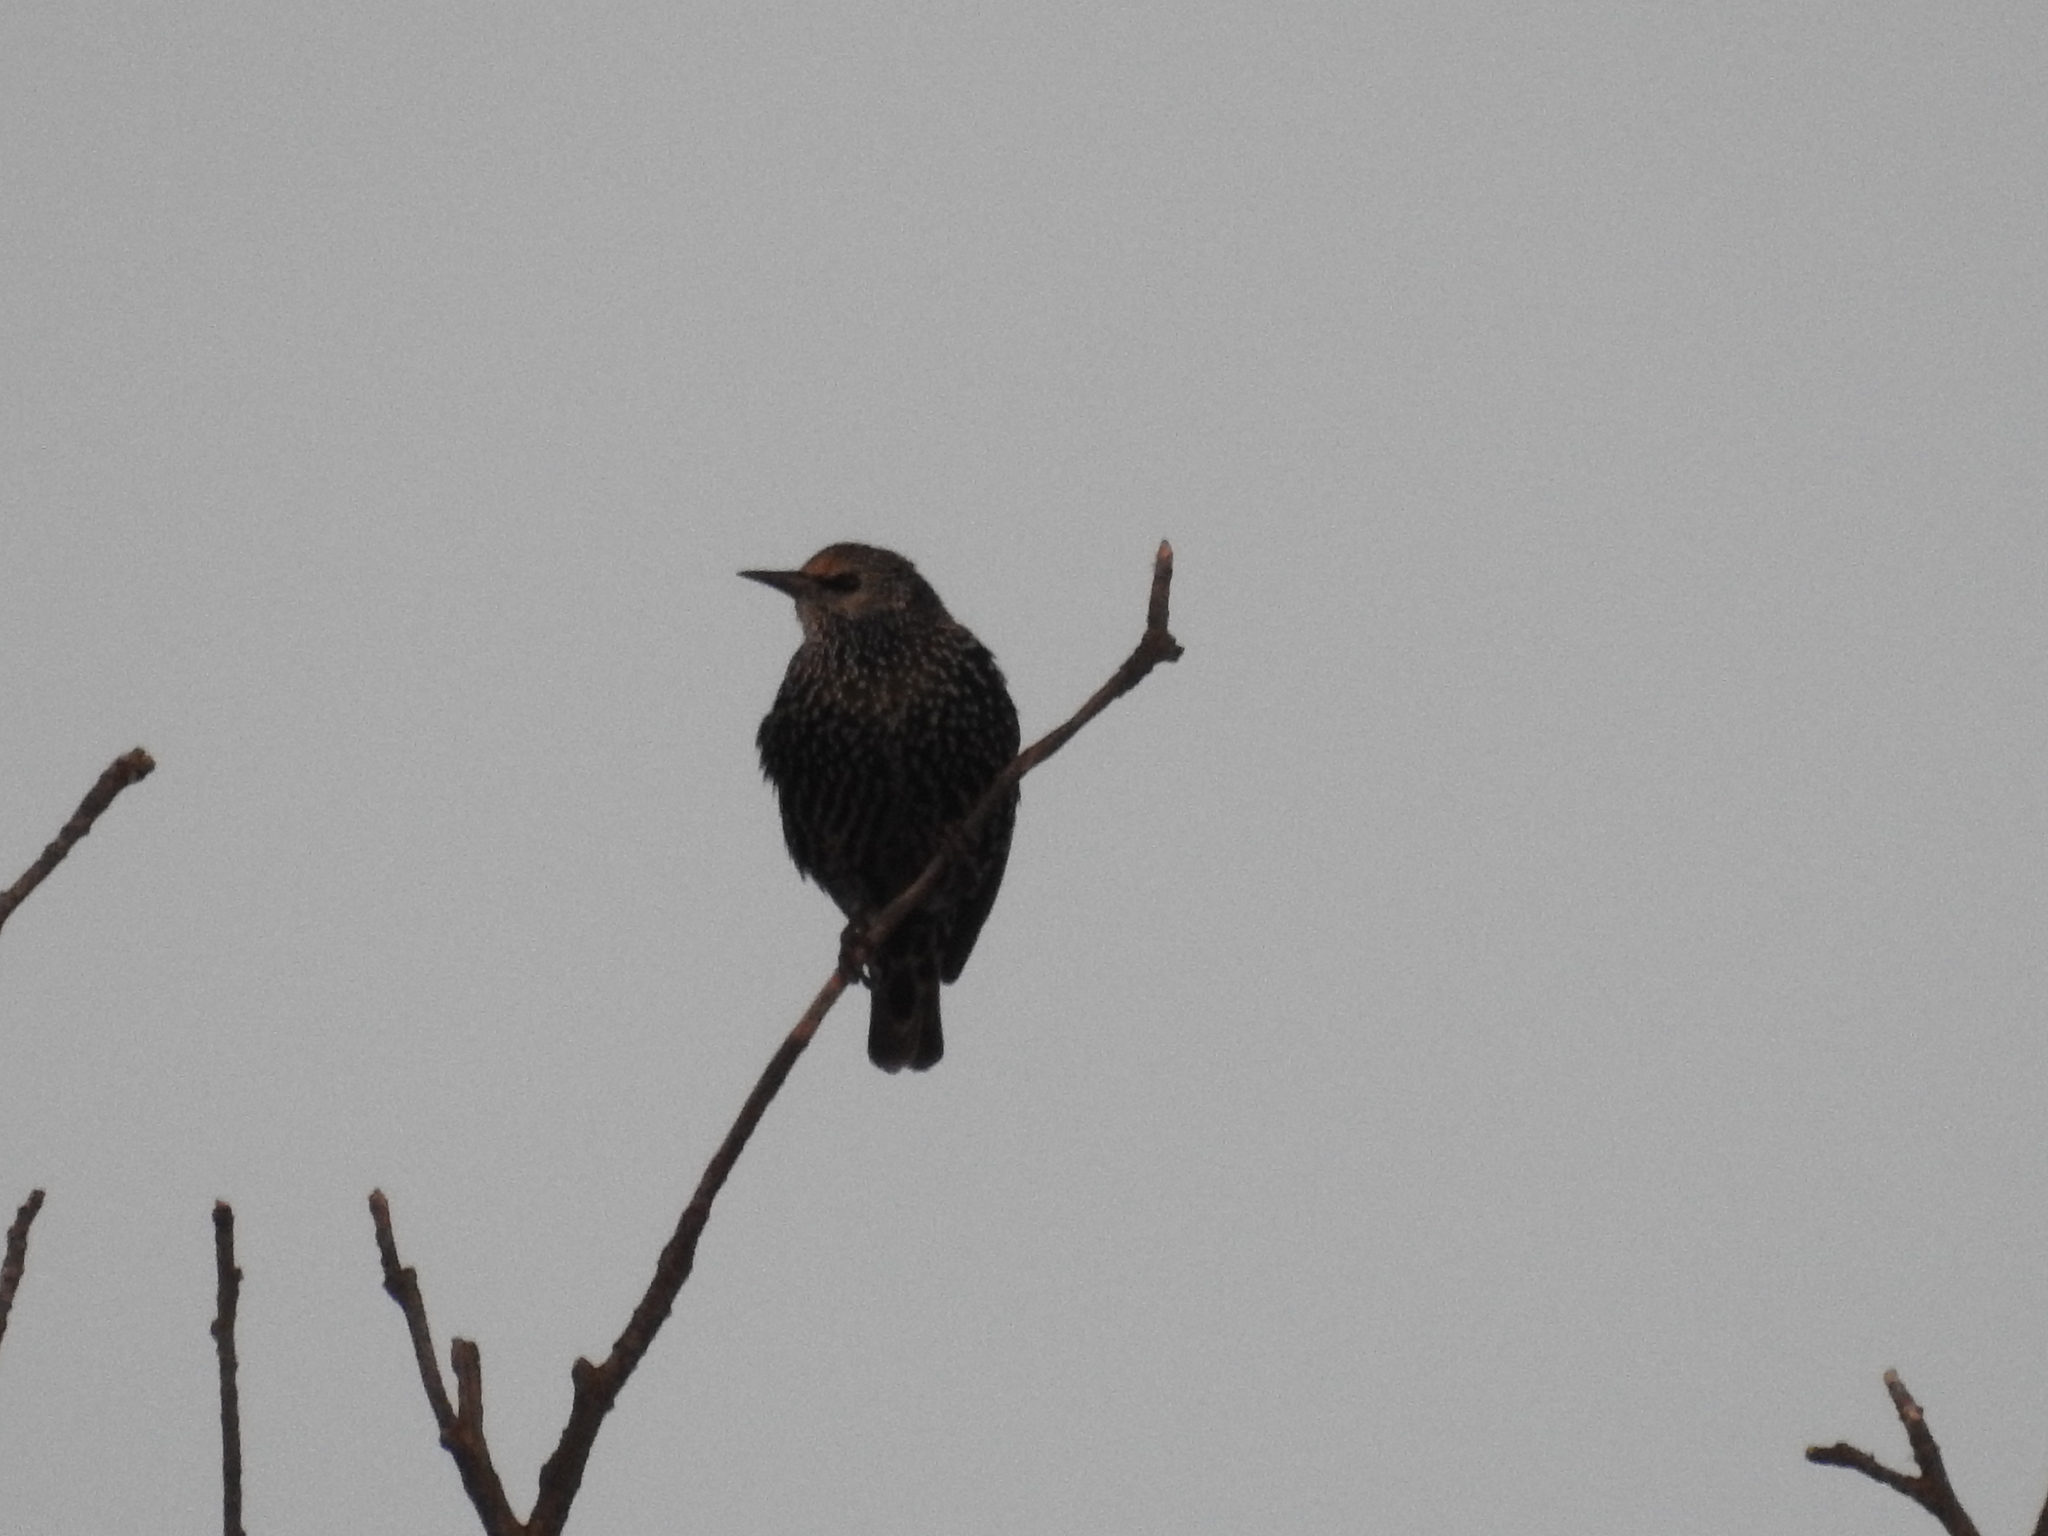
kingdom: Animalia
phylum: Chordata
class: Aves
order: Passeriformes
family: Sturnidae
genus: Sturnus
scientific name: Sturnus vulgaris
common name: Common starling
